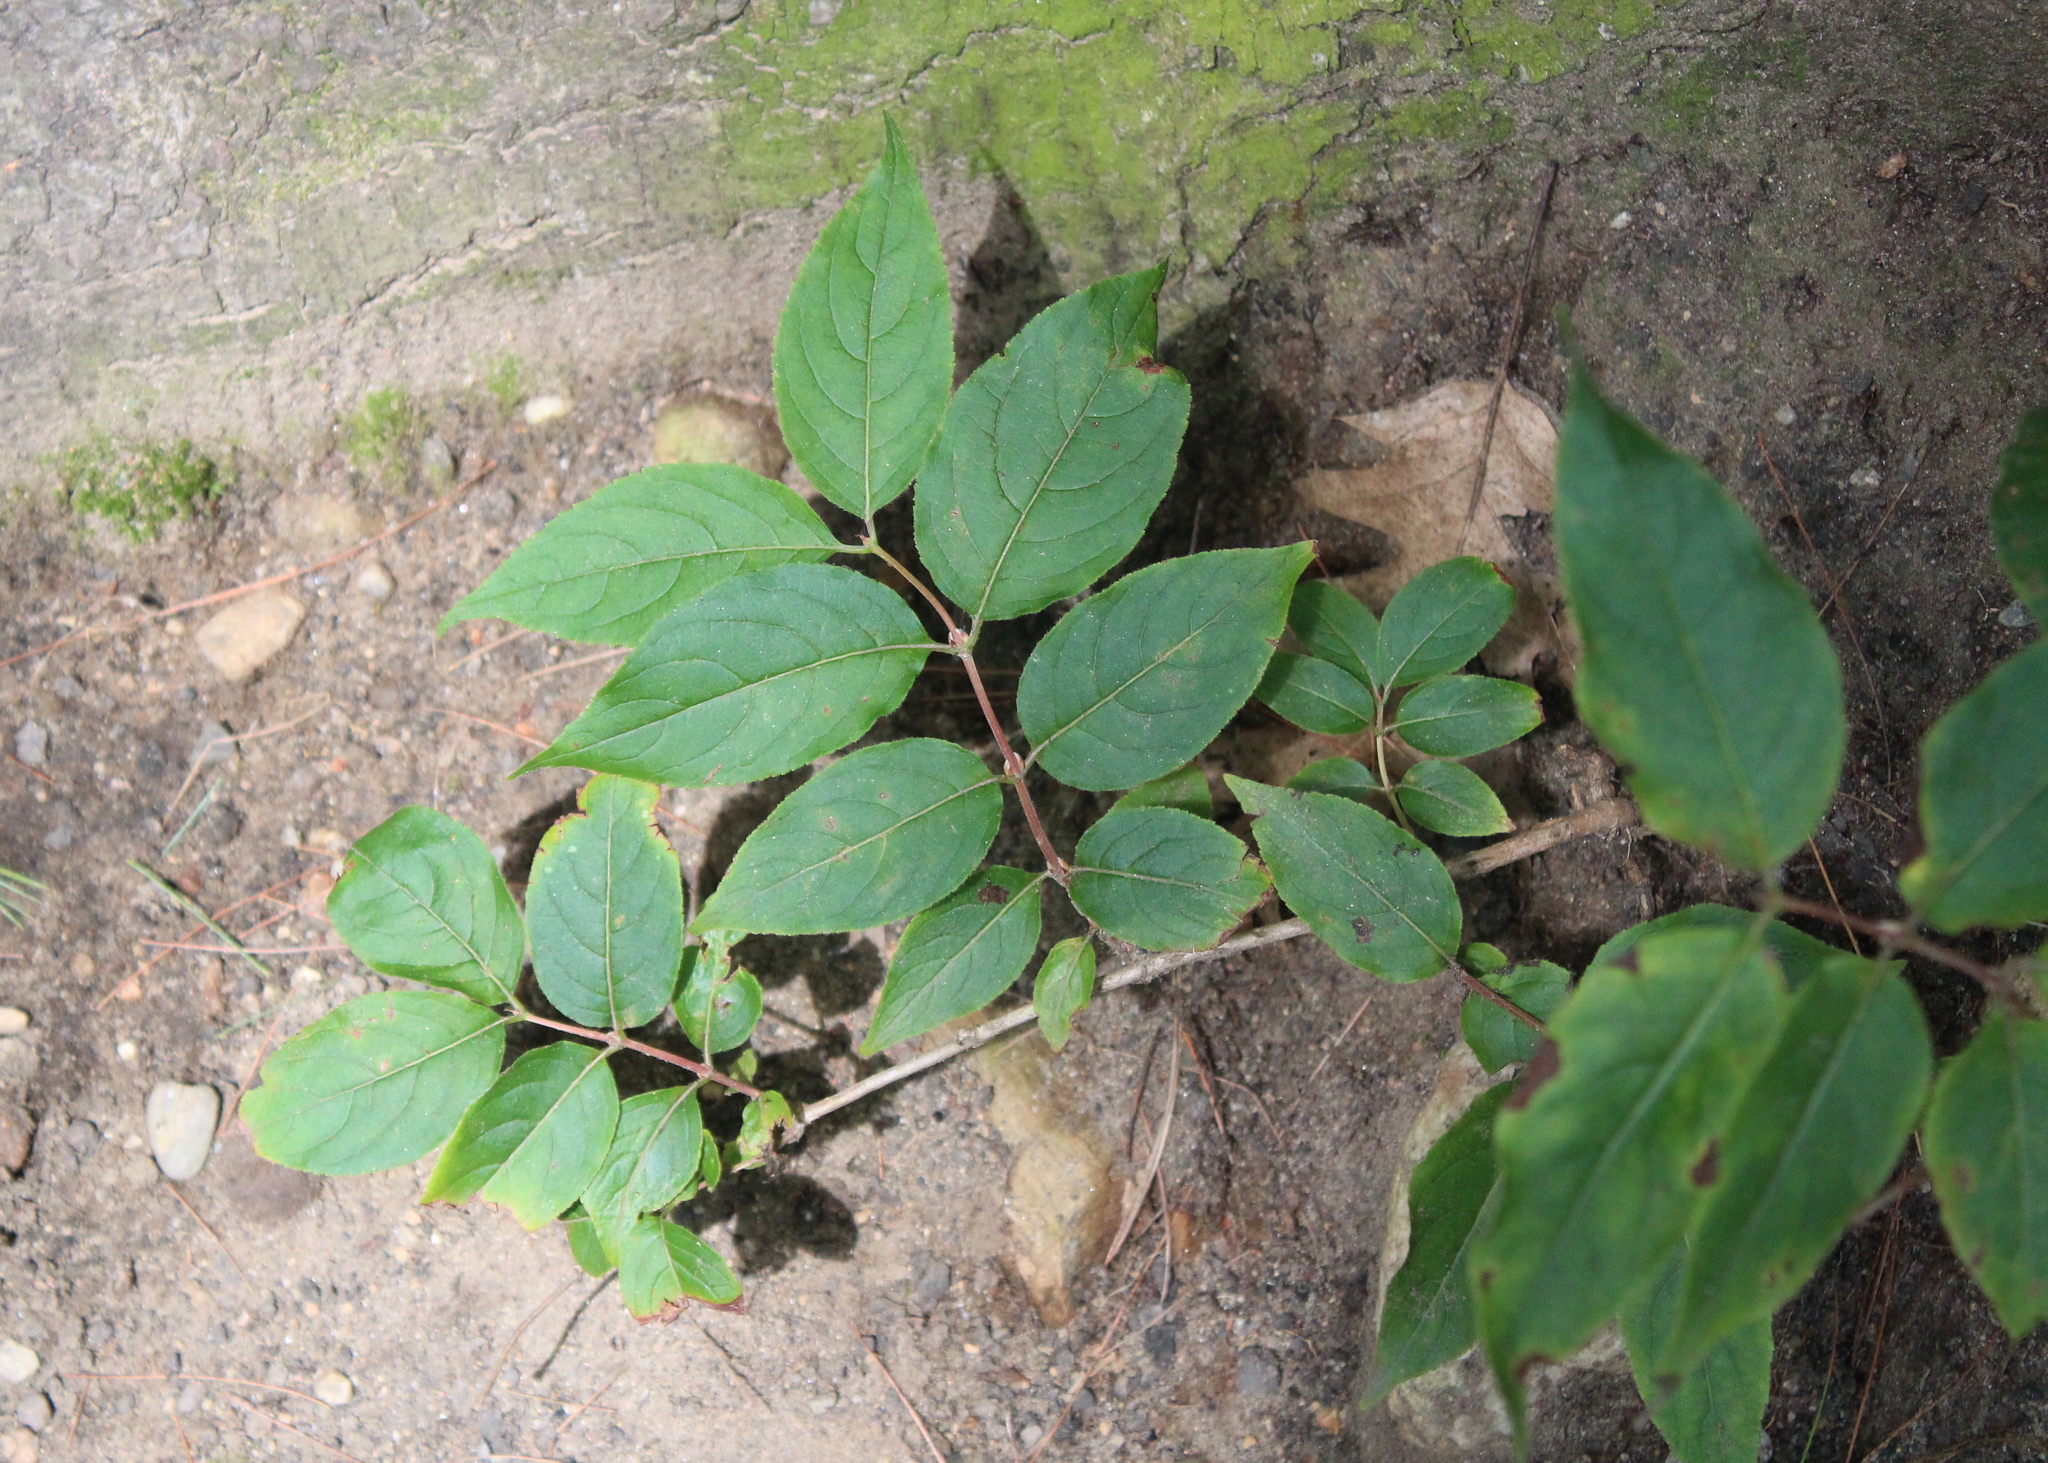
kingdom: Plantae
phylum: Tracheophyta
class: Magnoliopsida
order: Dipsacales
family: Caprifoliaceae
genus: Diervilla
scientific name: Diervilla lonicera
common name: Bush-honeysuckle
